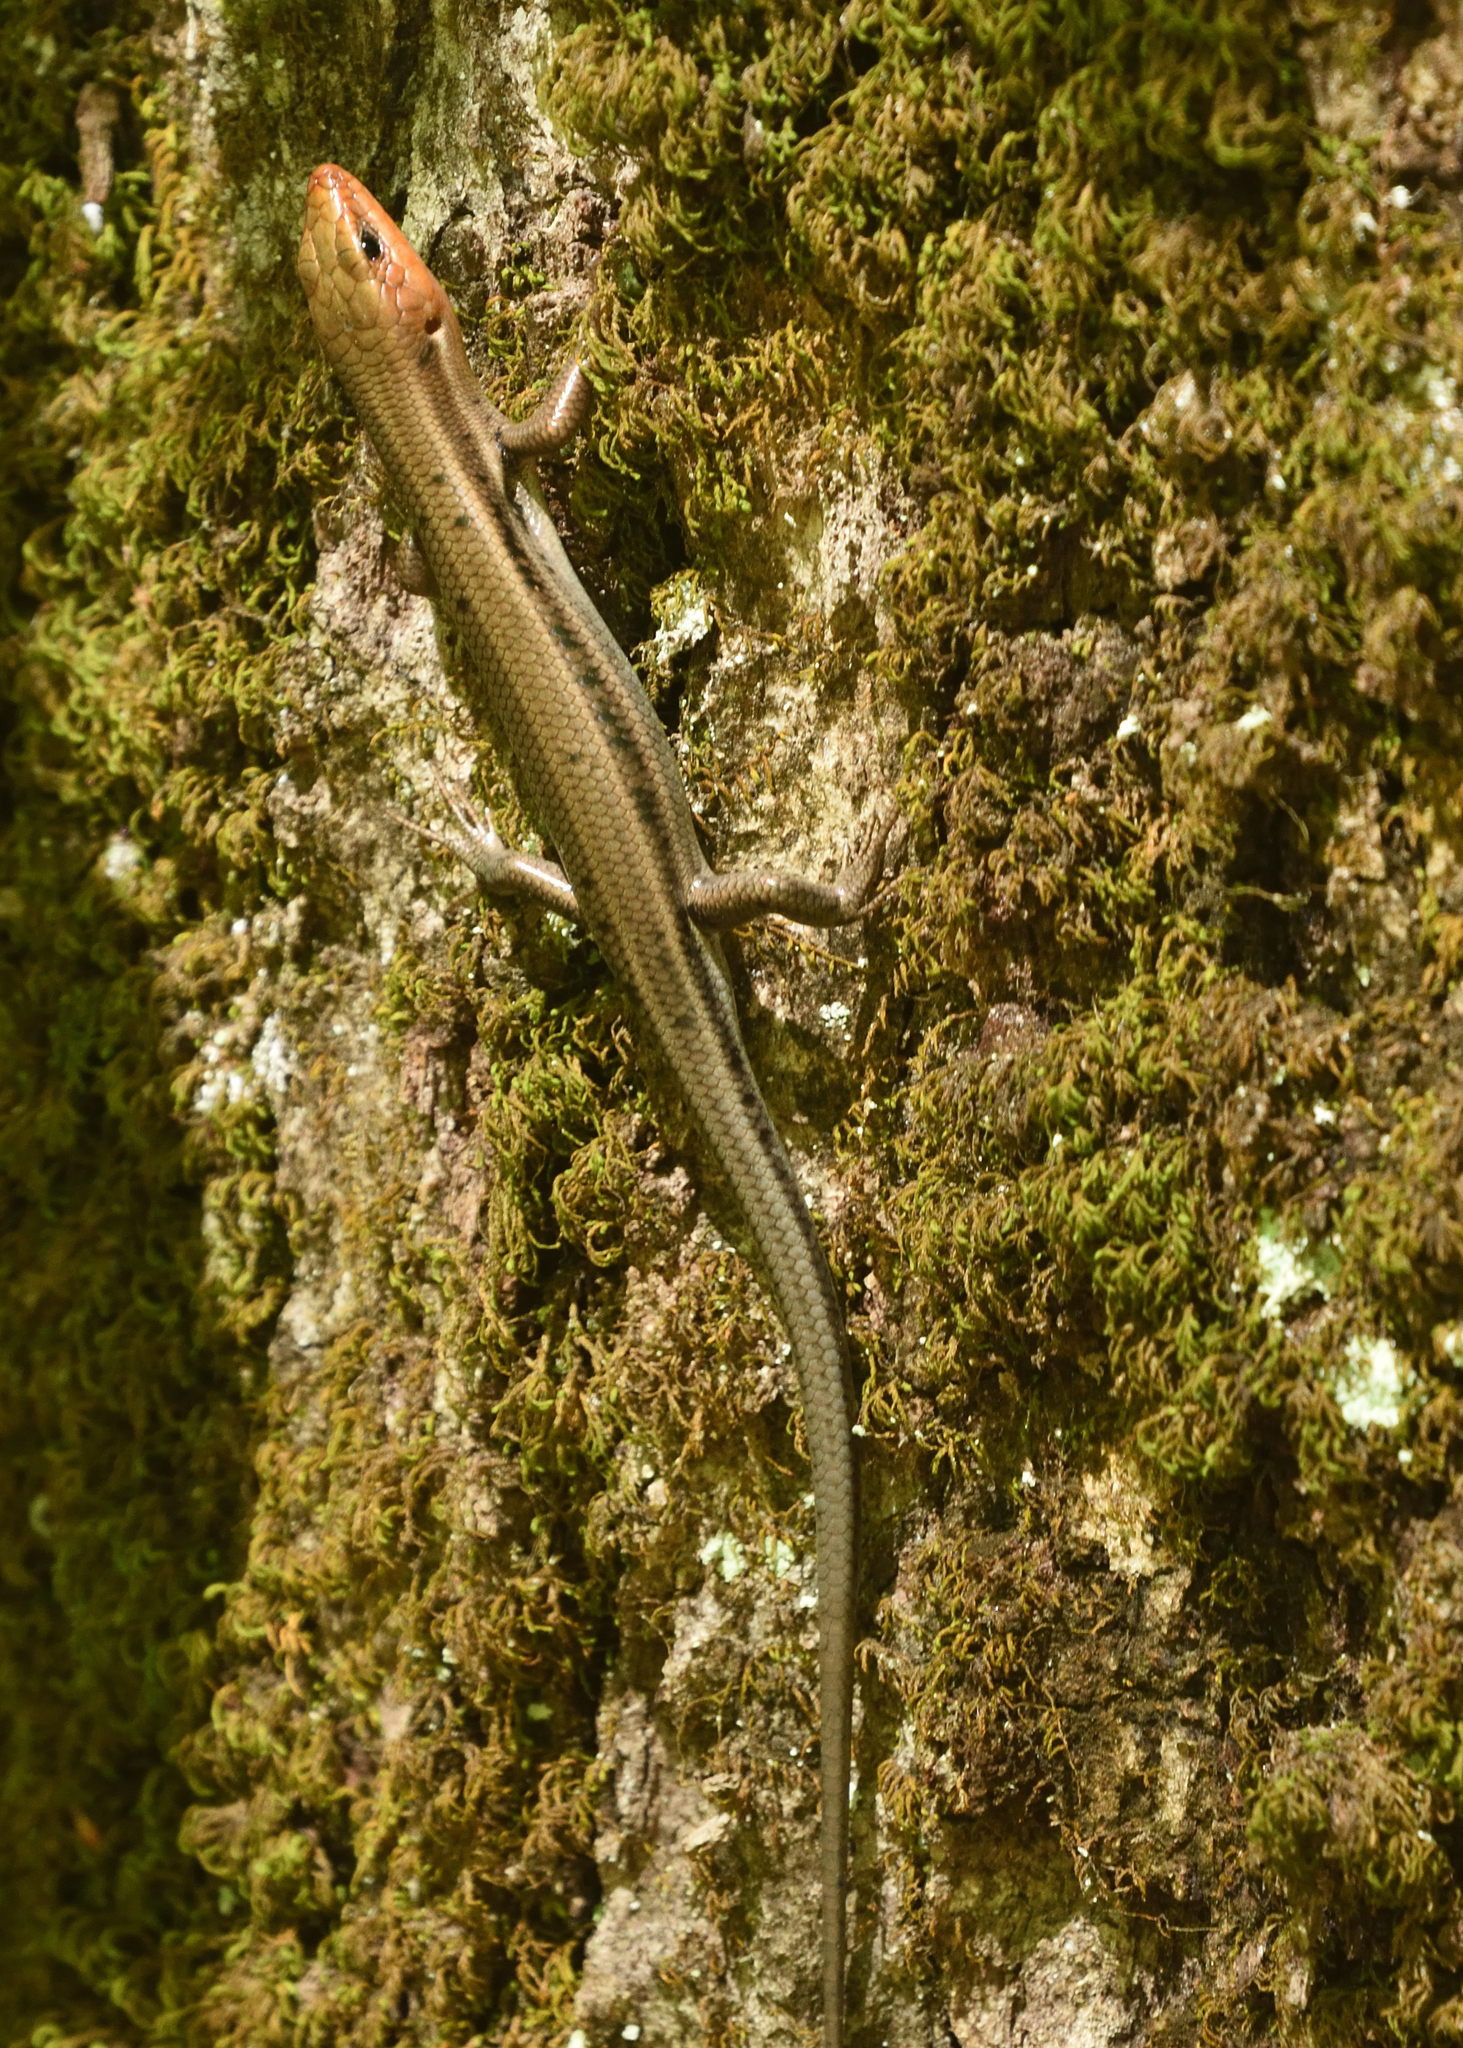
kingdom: Animalia
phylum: Chordata
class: Squamata
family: Scincidae
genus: Plestiodon
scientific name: Plestiodon fasciatus
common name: Five-lined skink
